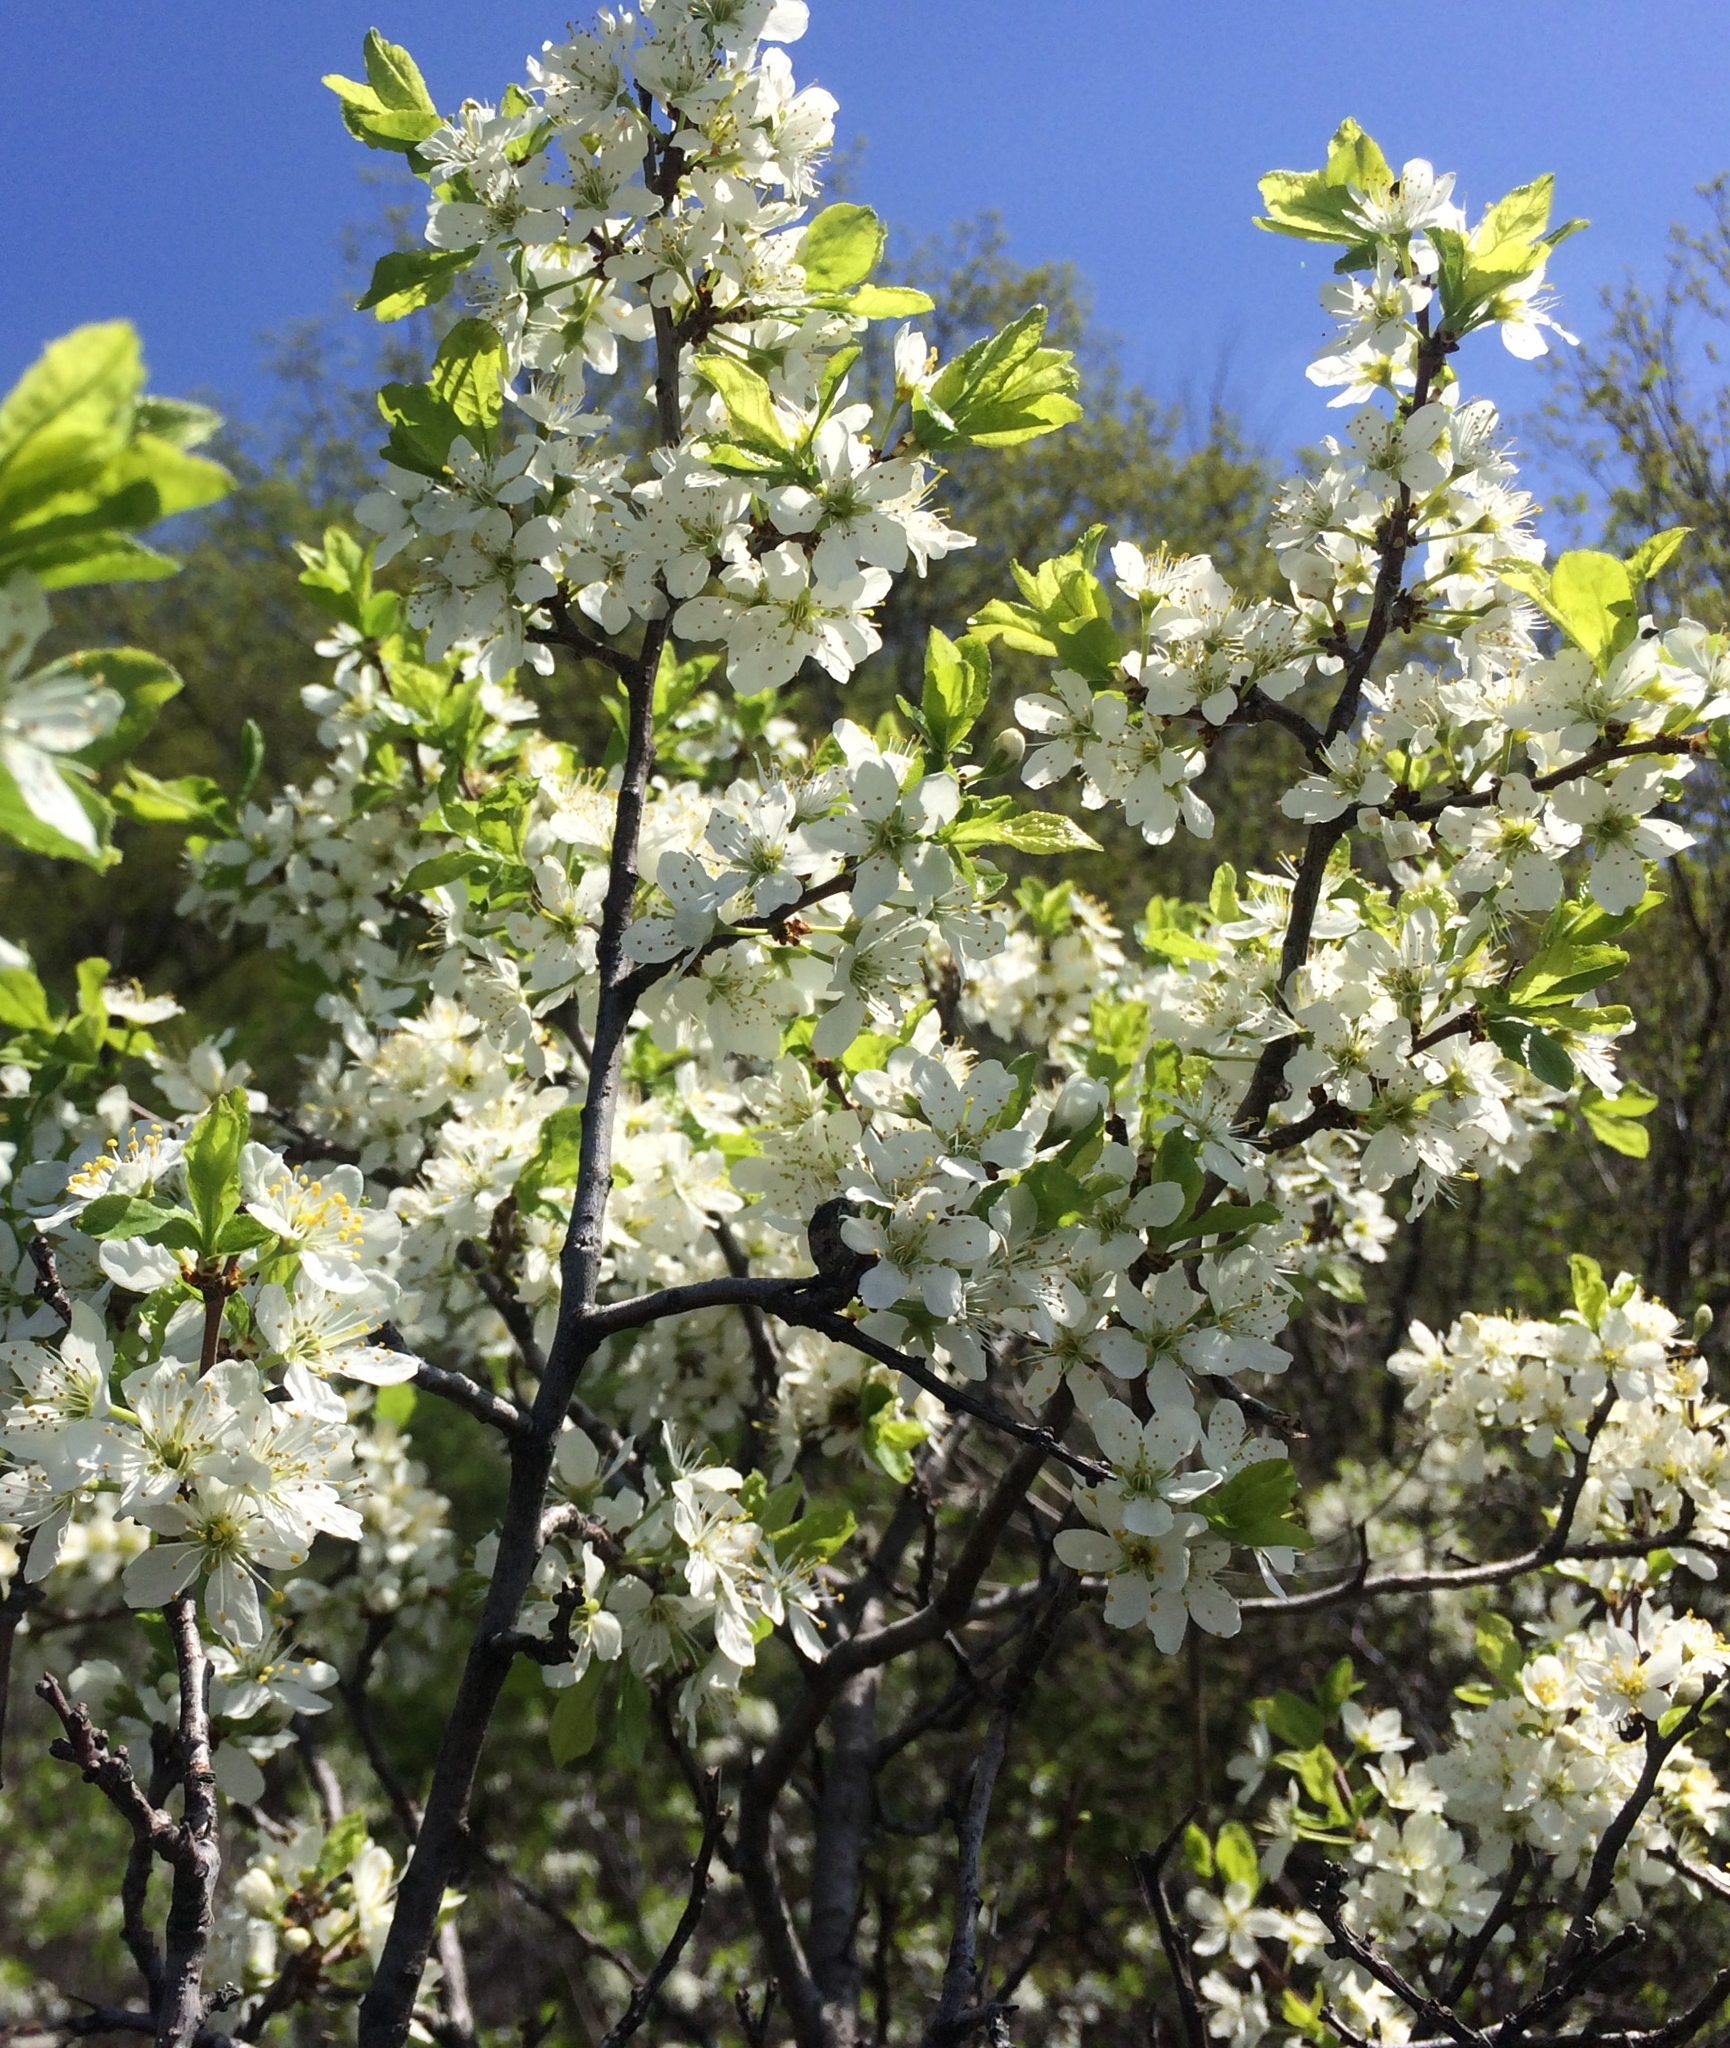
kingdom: Plantae
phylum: Tracheophyta
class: Magnoliopsida
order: Rosales
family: Rosaceae
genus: Prunus
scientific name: Prunus spinosa
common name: Blackthorn
